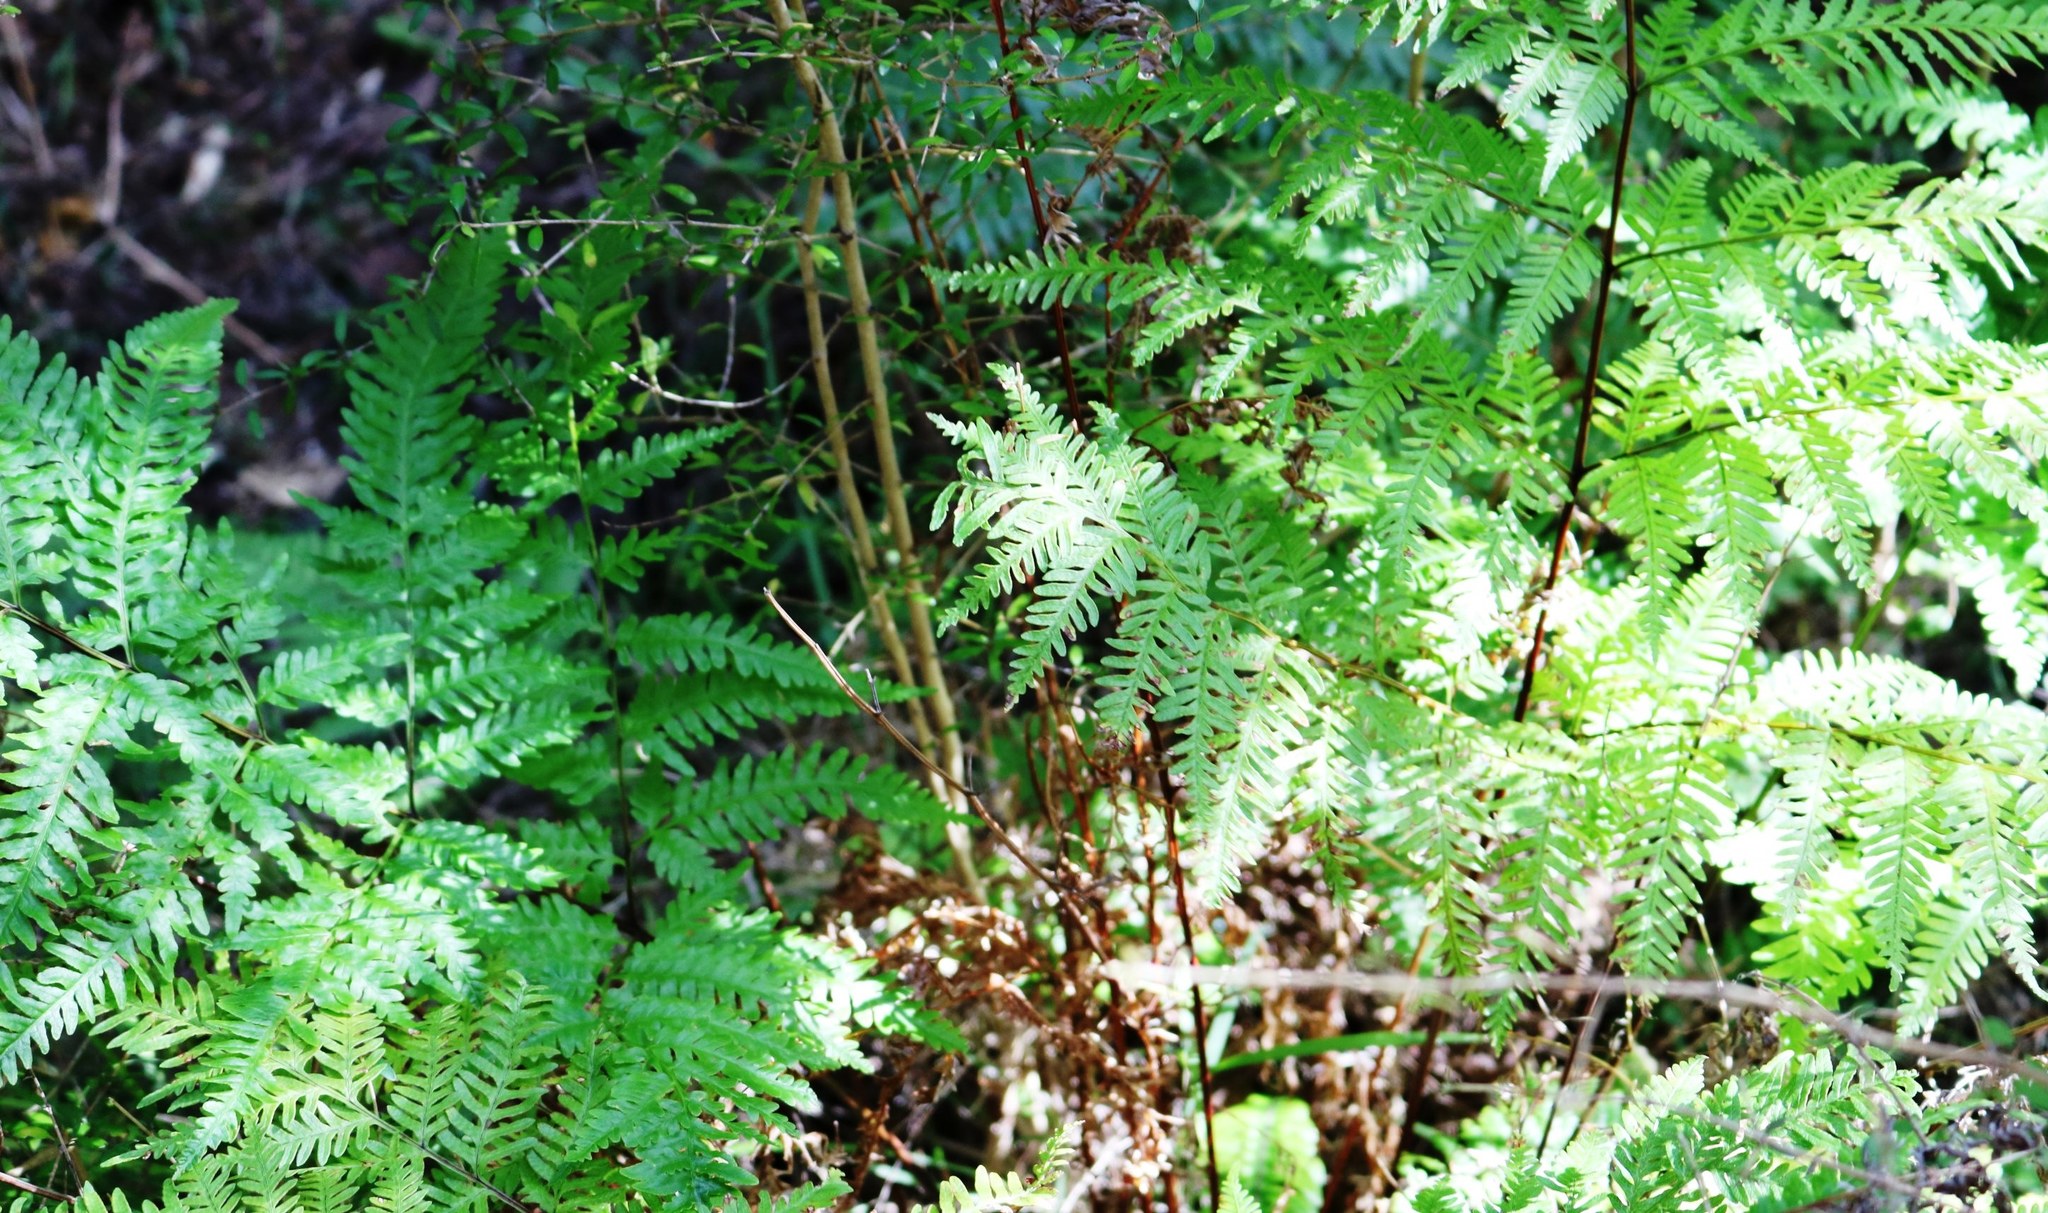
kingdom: Plantae
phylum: Tracheophyta
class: Polypodiopsida
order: Polypodiales
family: Pteridaceae
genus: Pteris
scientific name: Pteris tremula
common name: Australian brake
